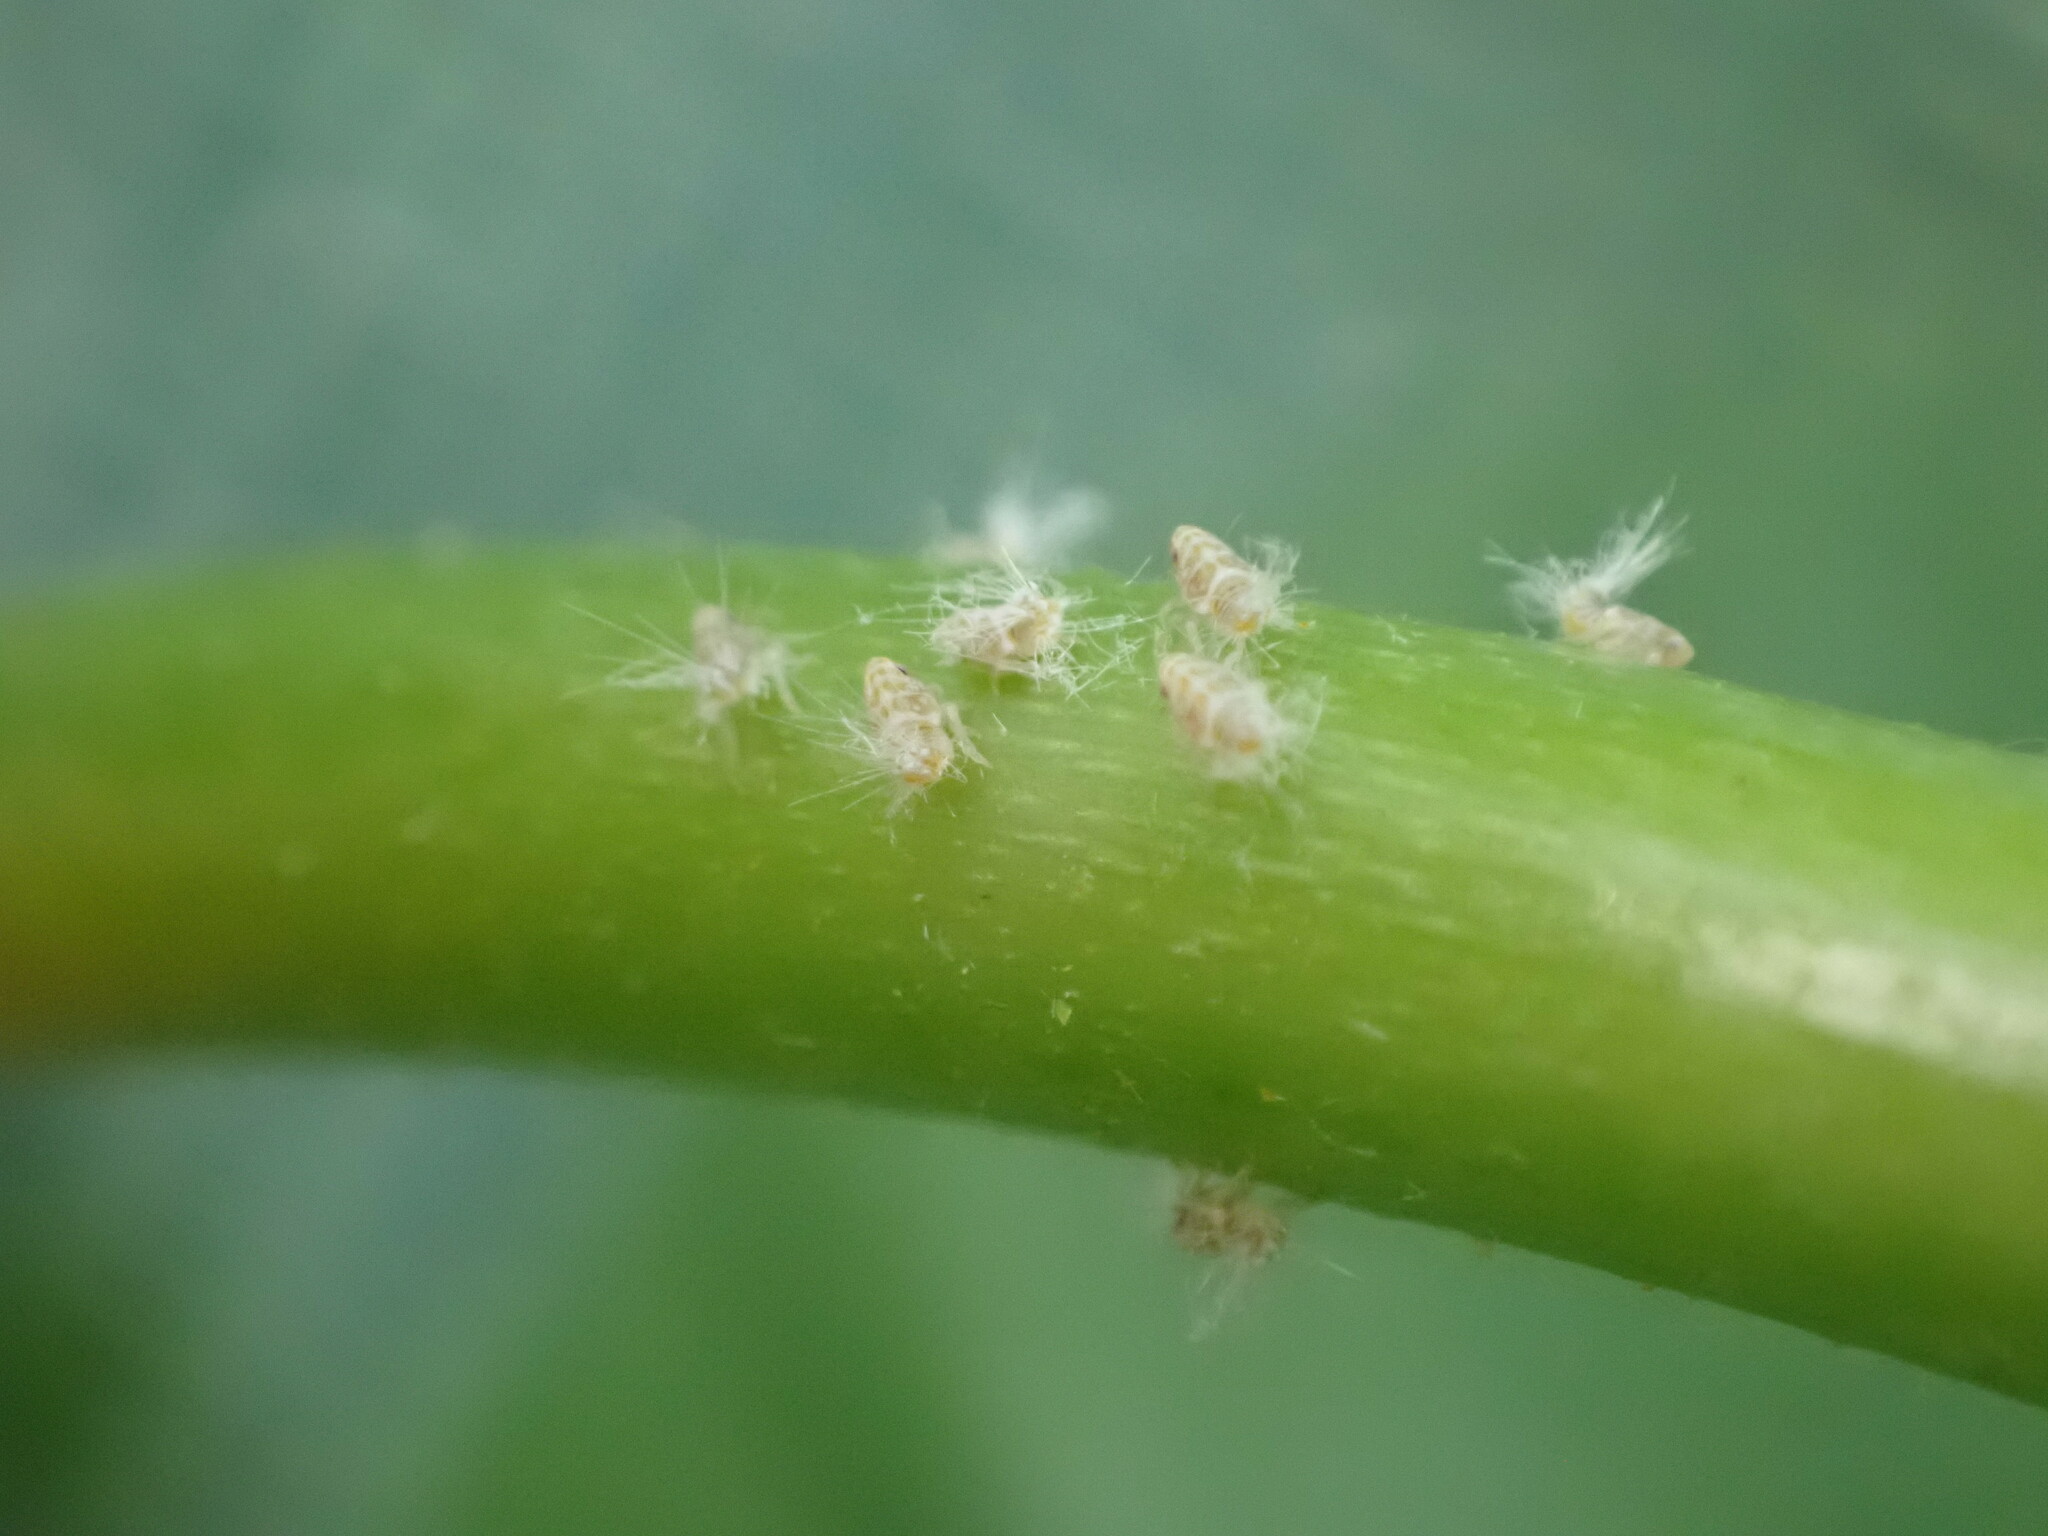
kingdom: Animalia
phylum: Arthropoda
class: Insecta
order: Hemiptera
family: Ricaniidae
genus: Scolypopa
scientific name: Scolypopa australis
